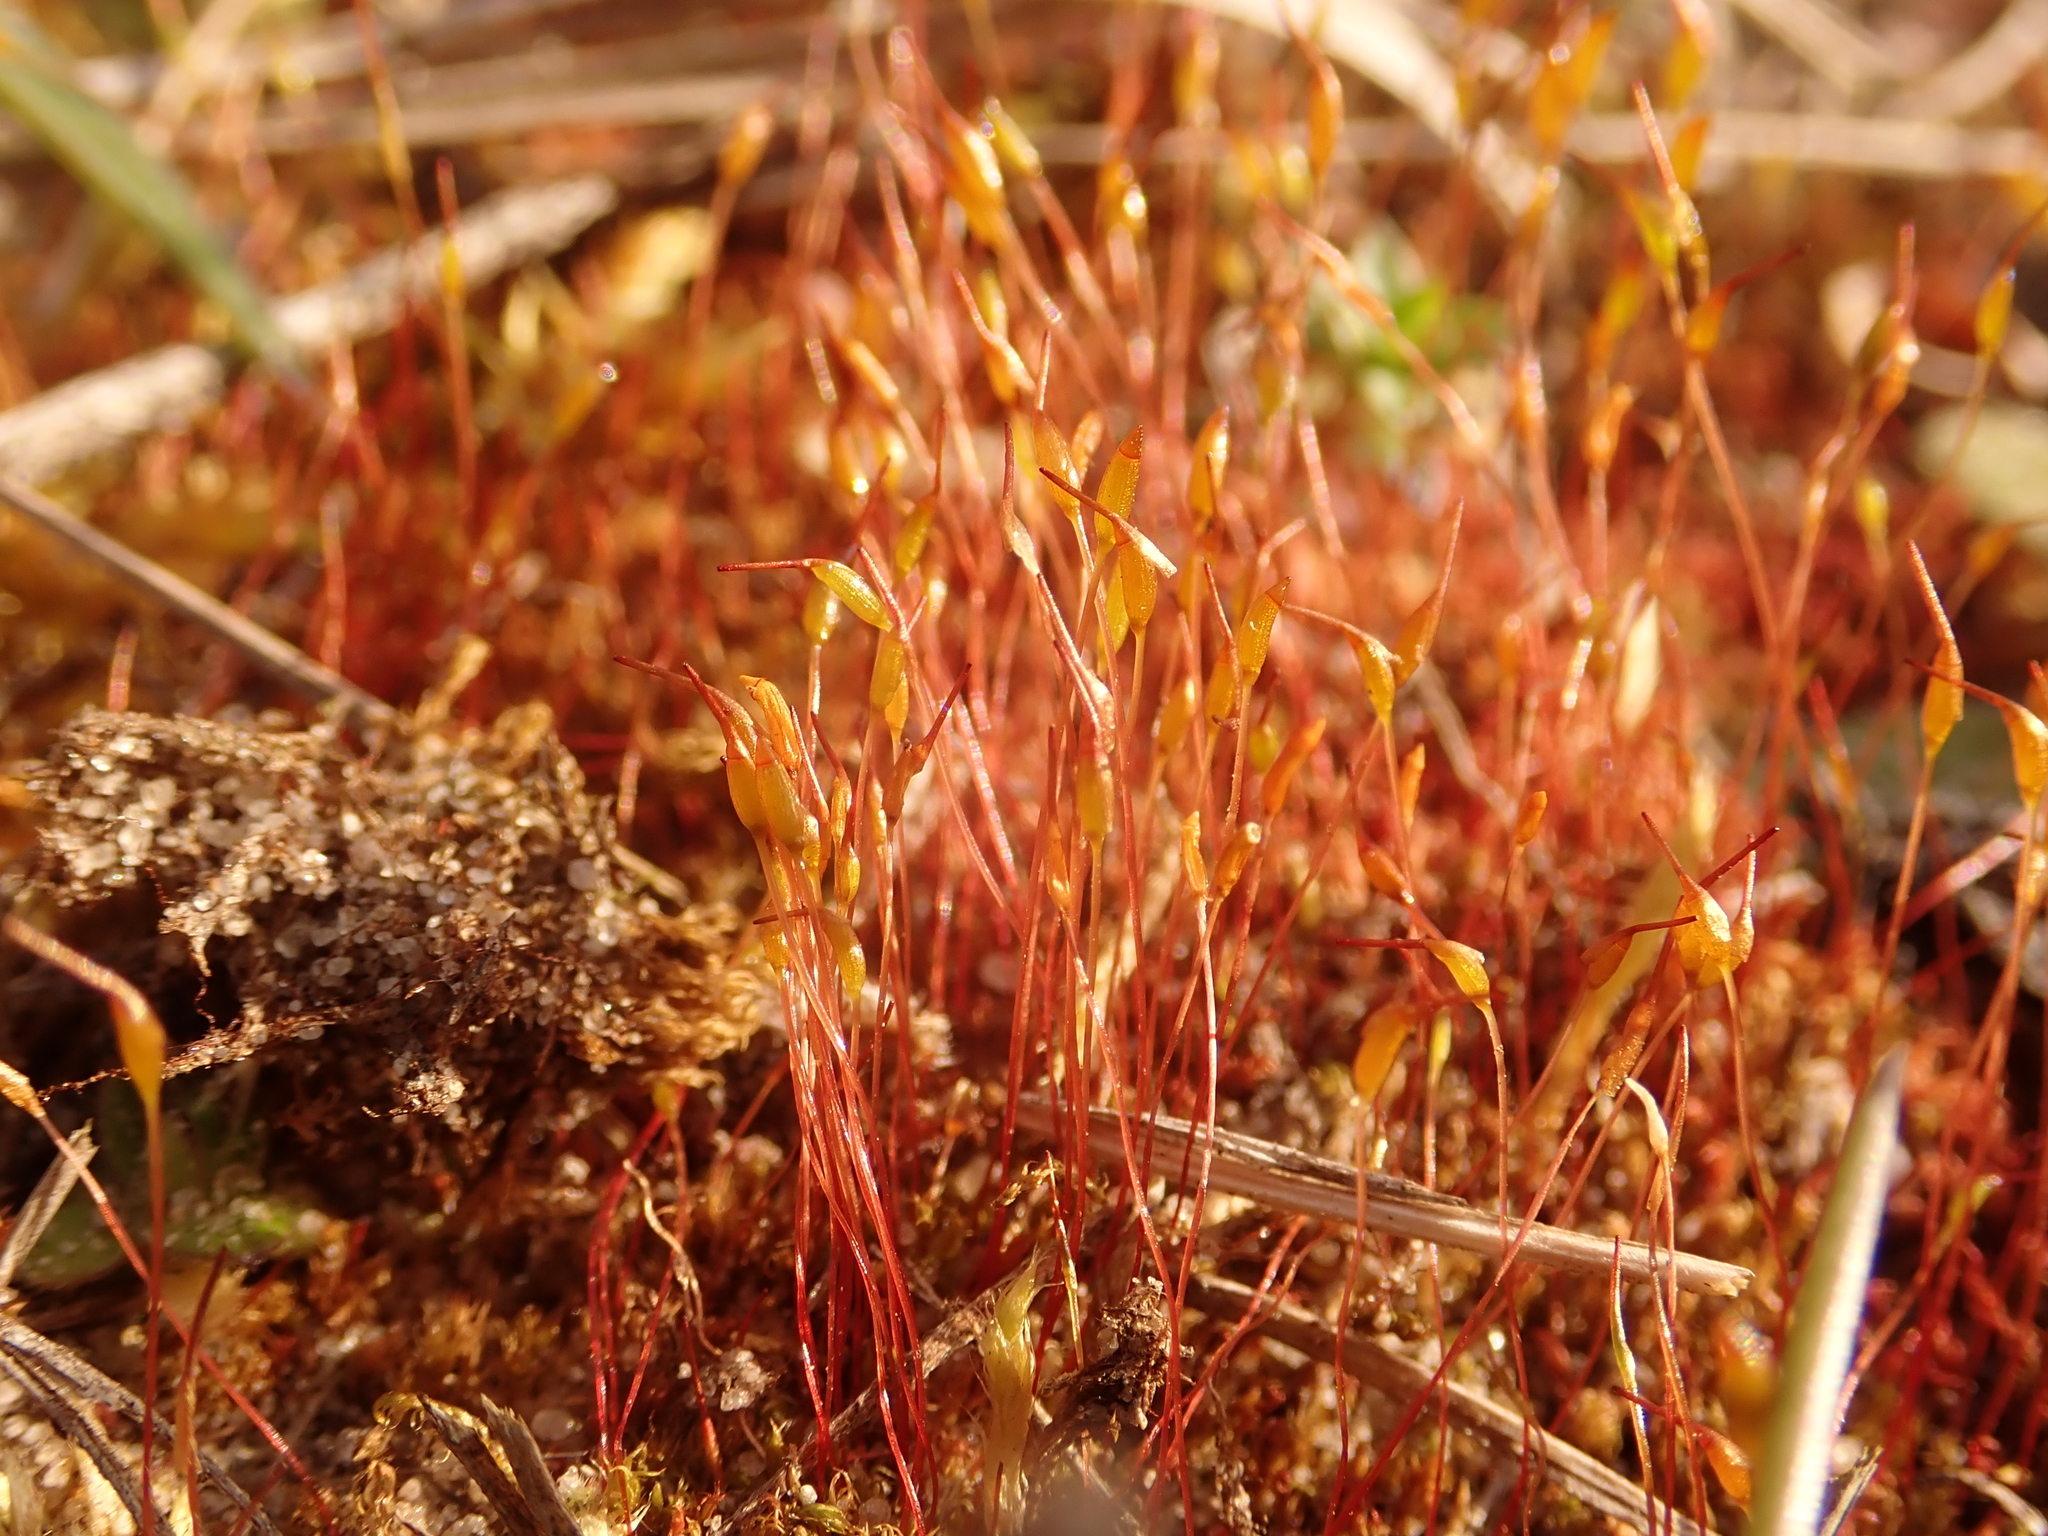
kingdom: Plantae
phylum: Bryophyta
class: Bryopsida
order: Dicranales
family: Ditrichaceae
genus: Ceratodon
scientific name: Ceratodon purpureus
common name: Redshank
